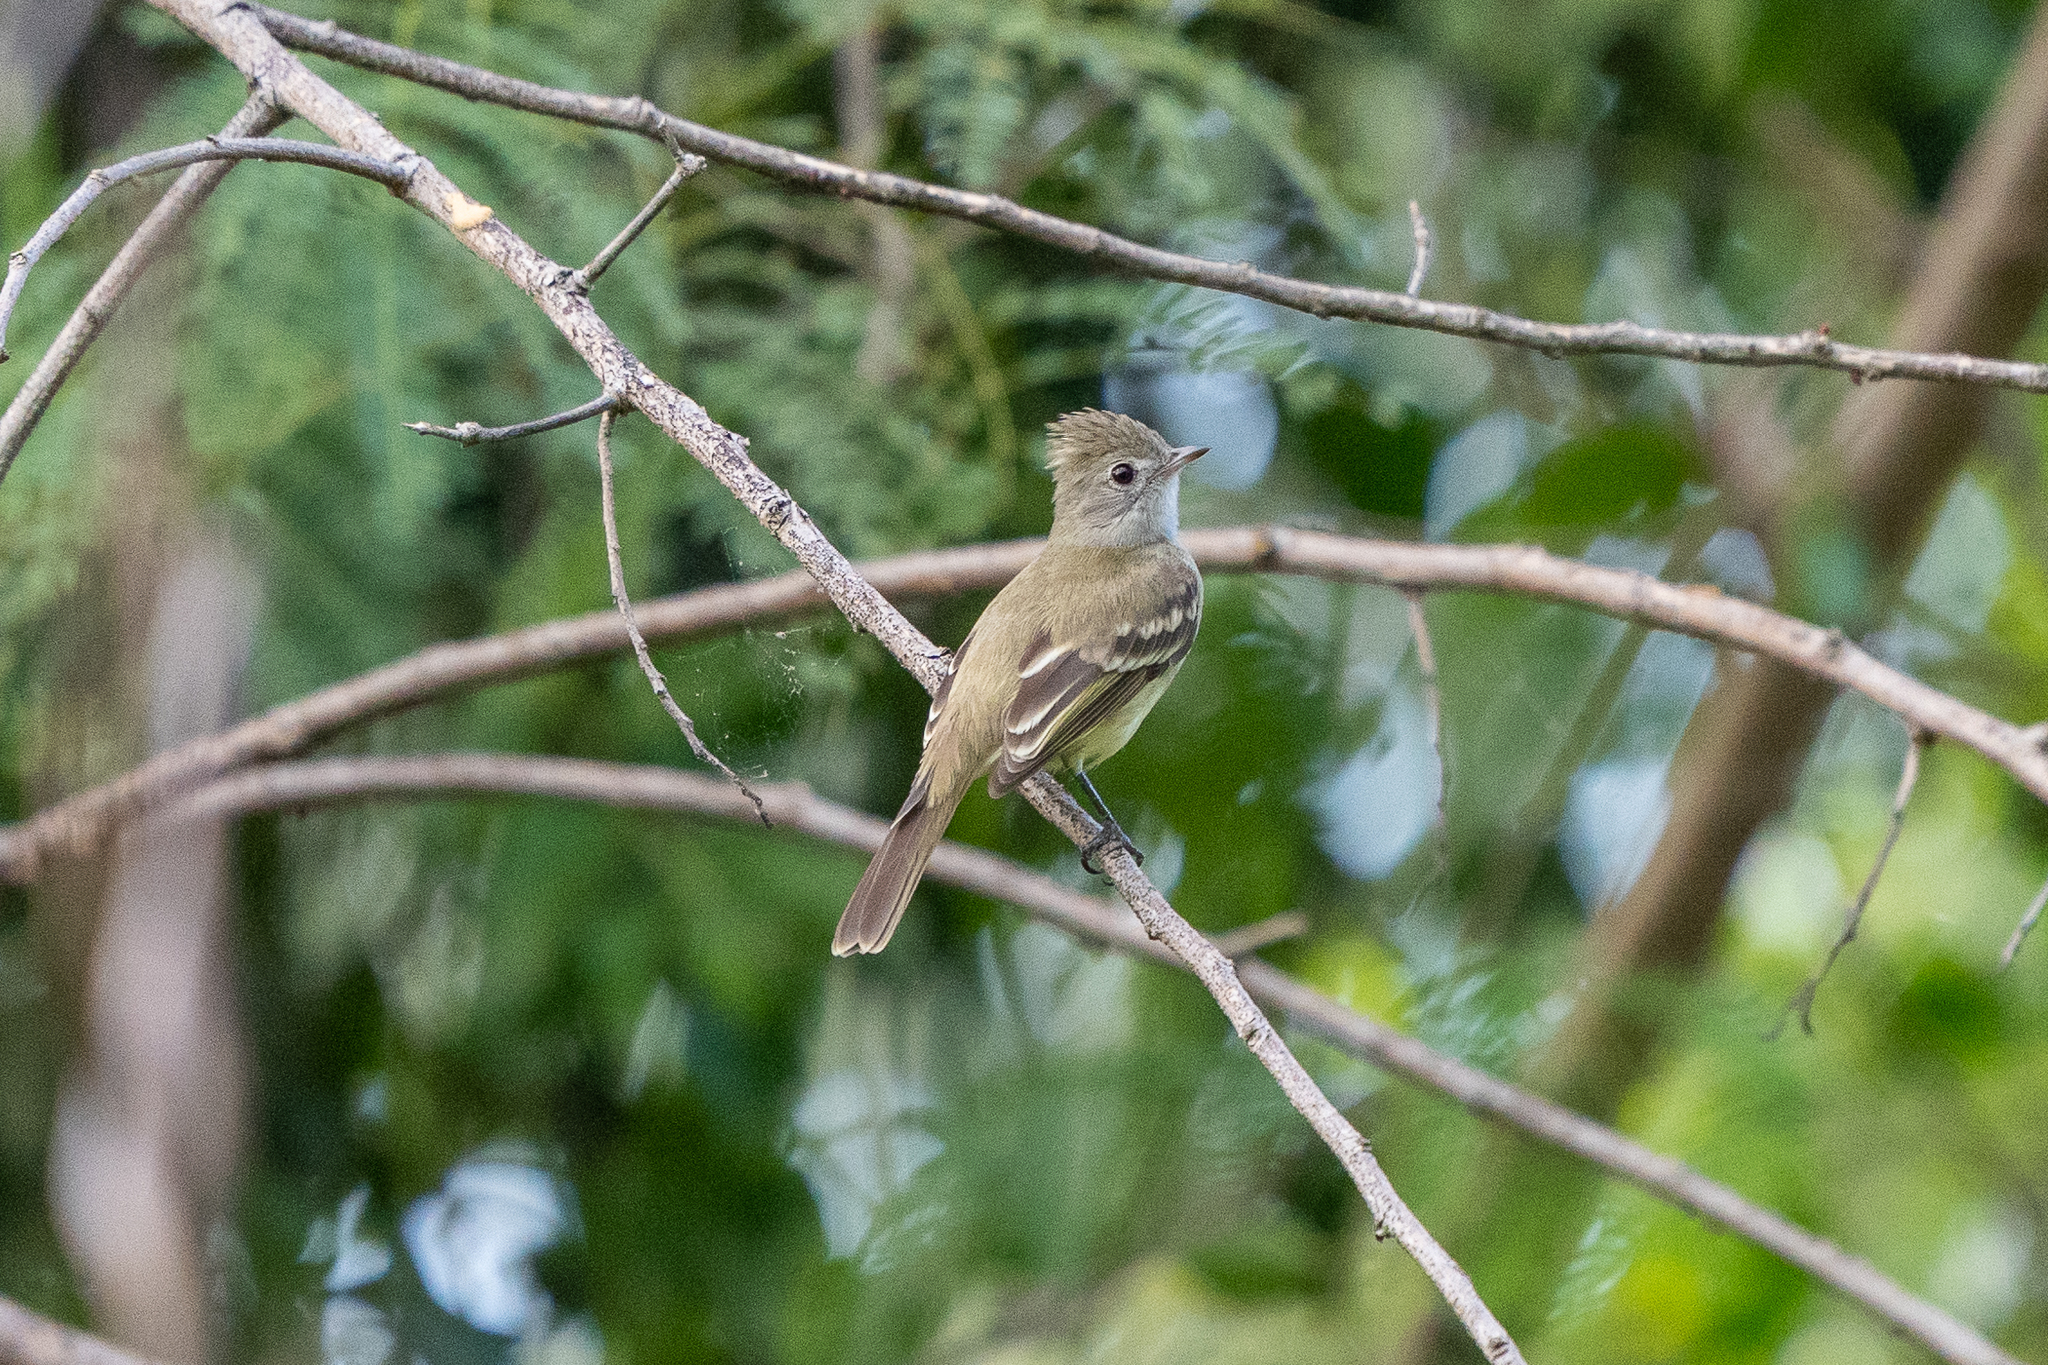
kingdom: Animalia
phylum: Chordata
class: Aves
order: Passeriformes
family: Tyrannidae
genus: Elaenia
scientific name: Elaenia flavogaster
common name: Yellow-bellied elaenia
